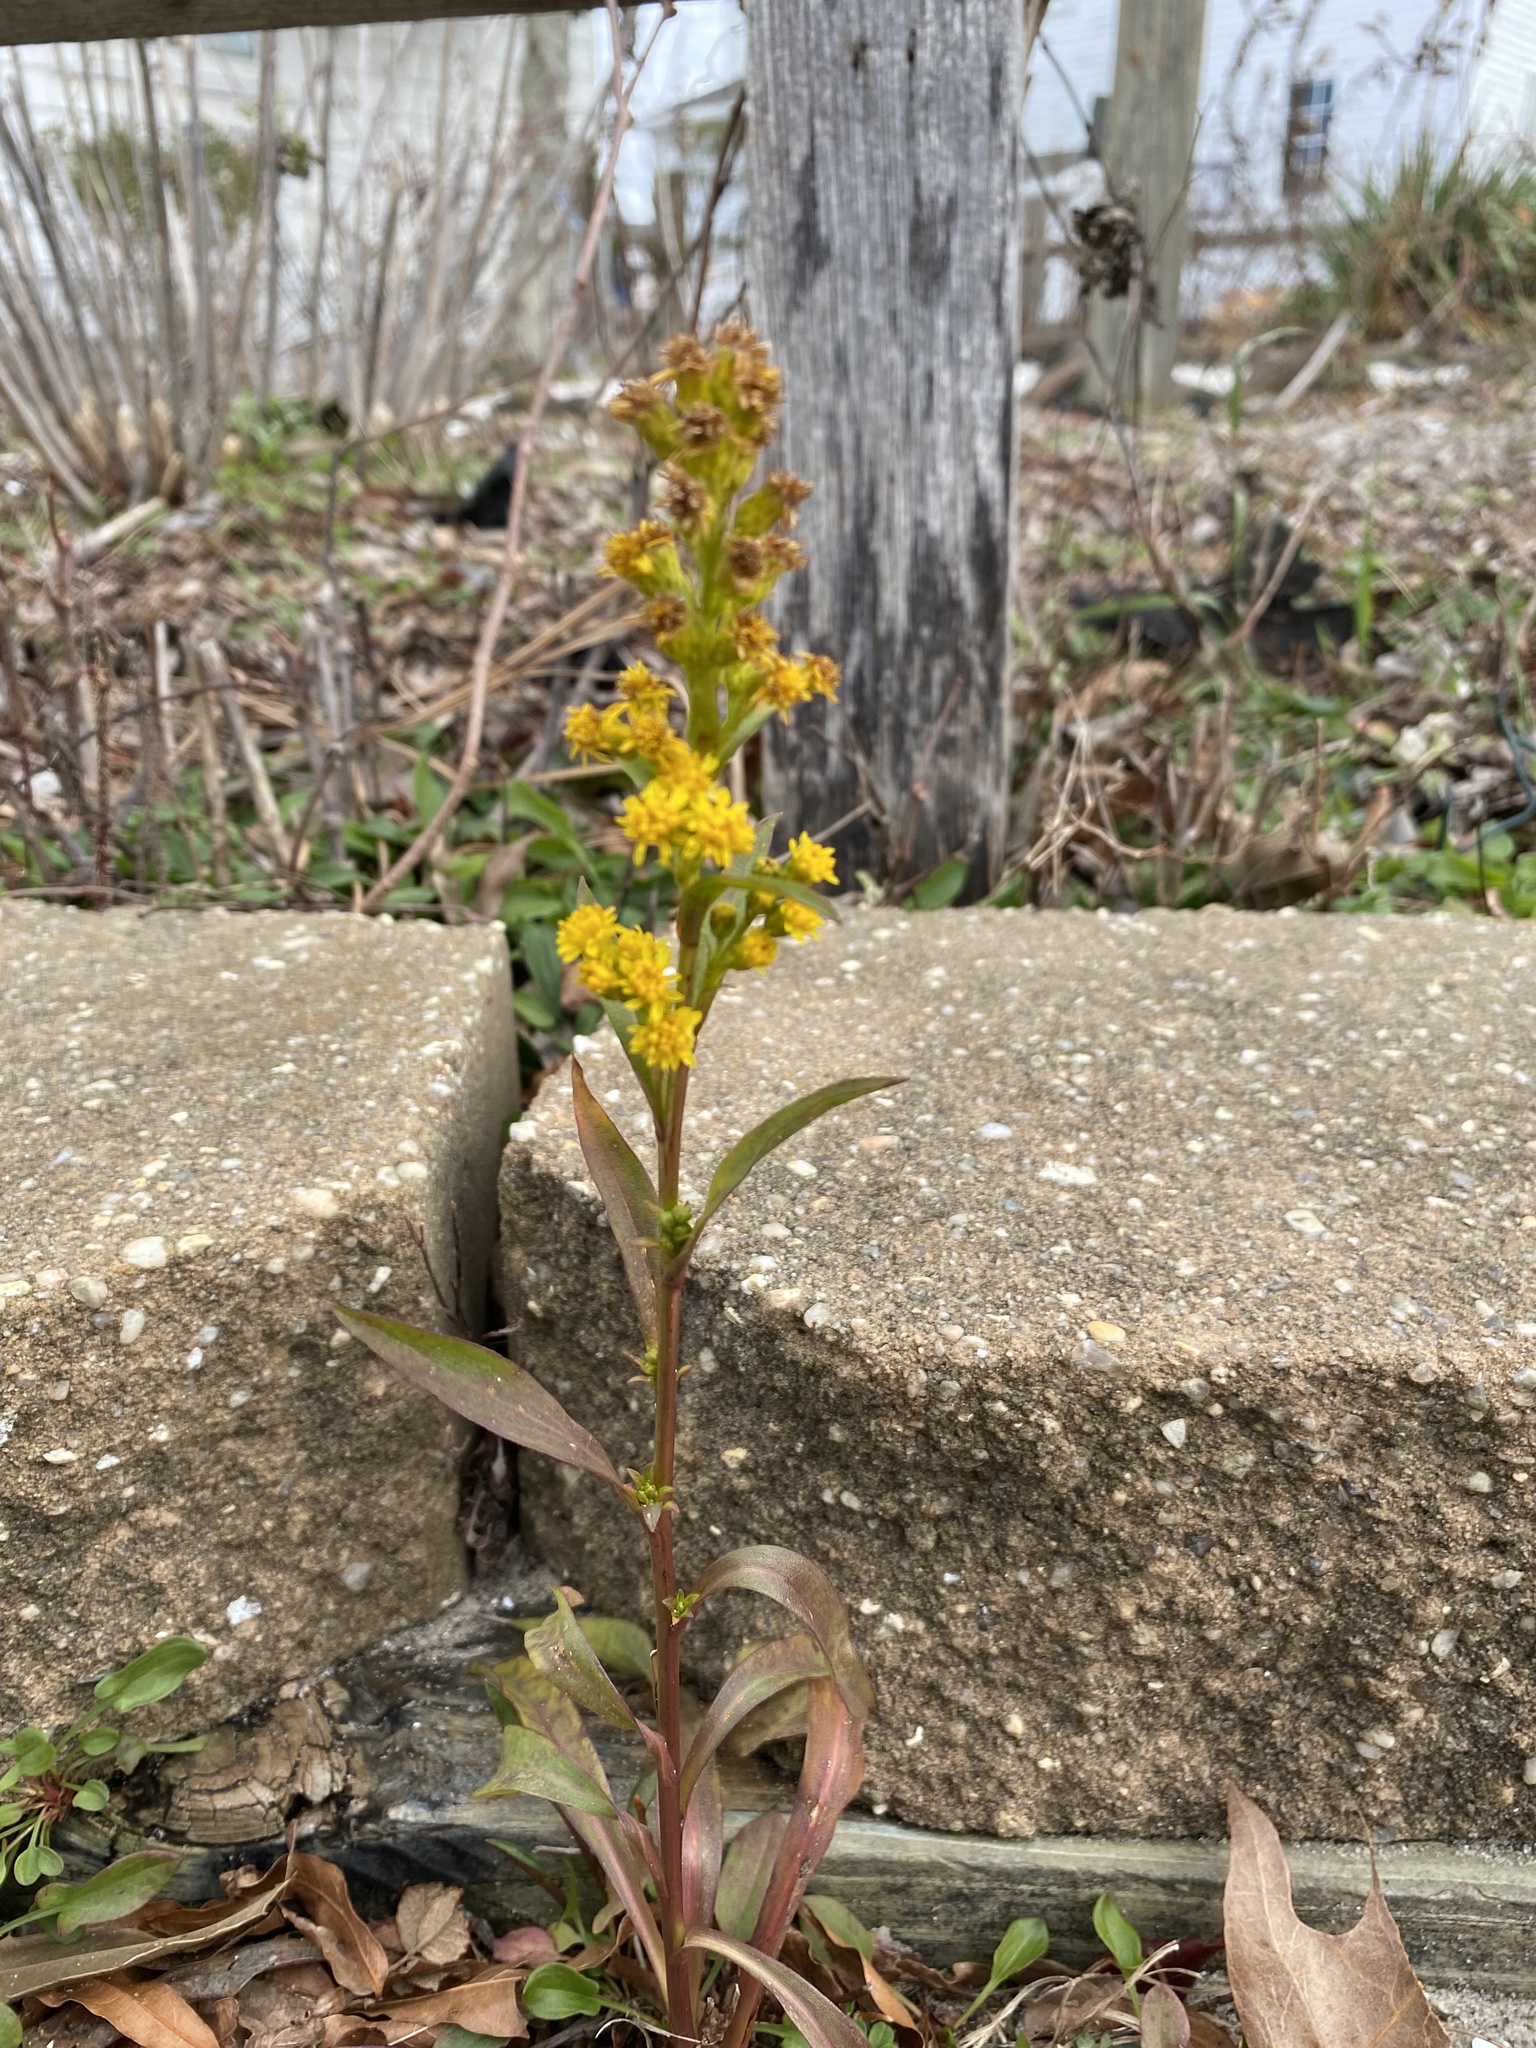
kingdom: Plantae
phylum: Tracheophyta
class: Magnoliopsida
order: Asterales
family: Asteraceae
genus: Solidago
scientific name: Solidago sempervirens
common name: Salt-marsh goldenrod
